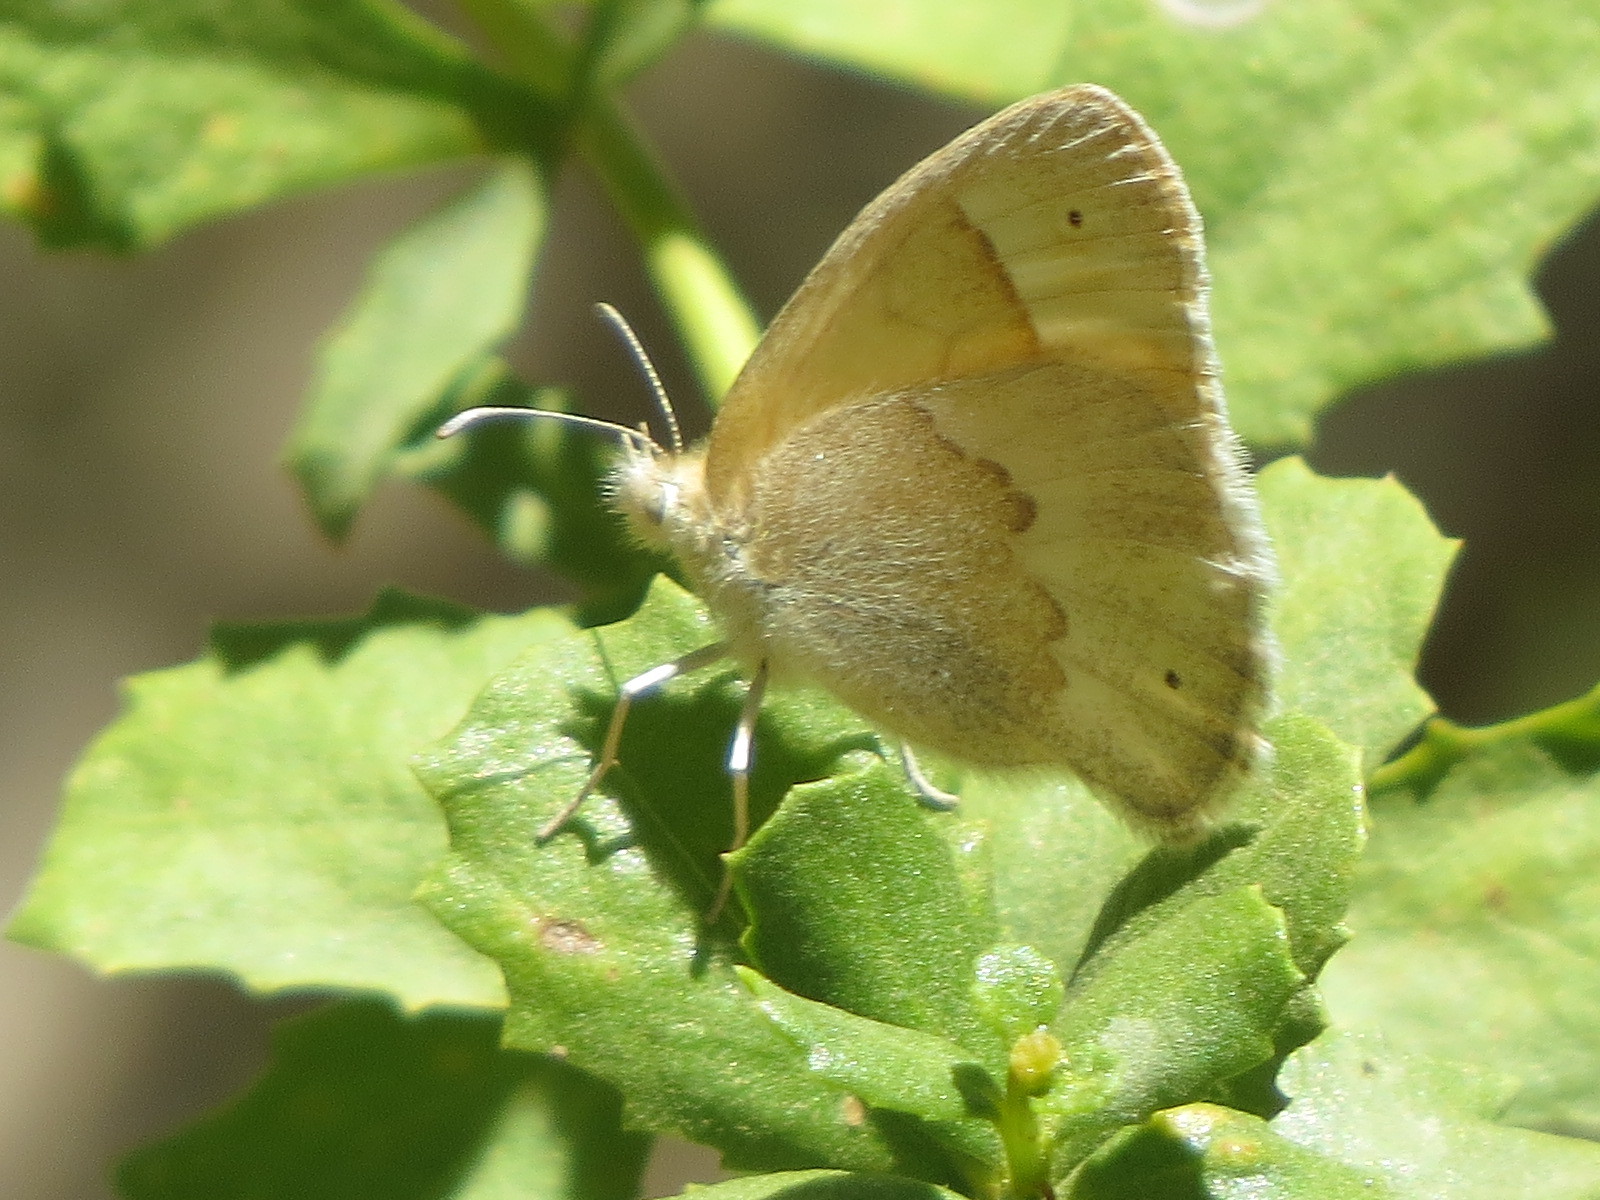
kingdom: Animalia
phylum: Arthropoda
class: Insecta
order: Lepidoptera
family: Nymphalidae
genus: Coenonympha
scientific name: Coenonympha california
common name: Common ringlet
